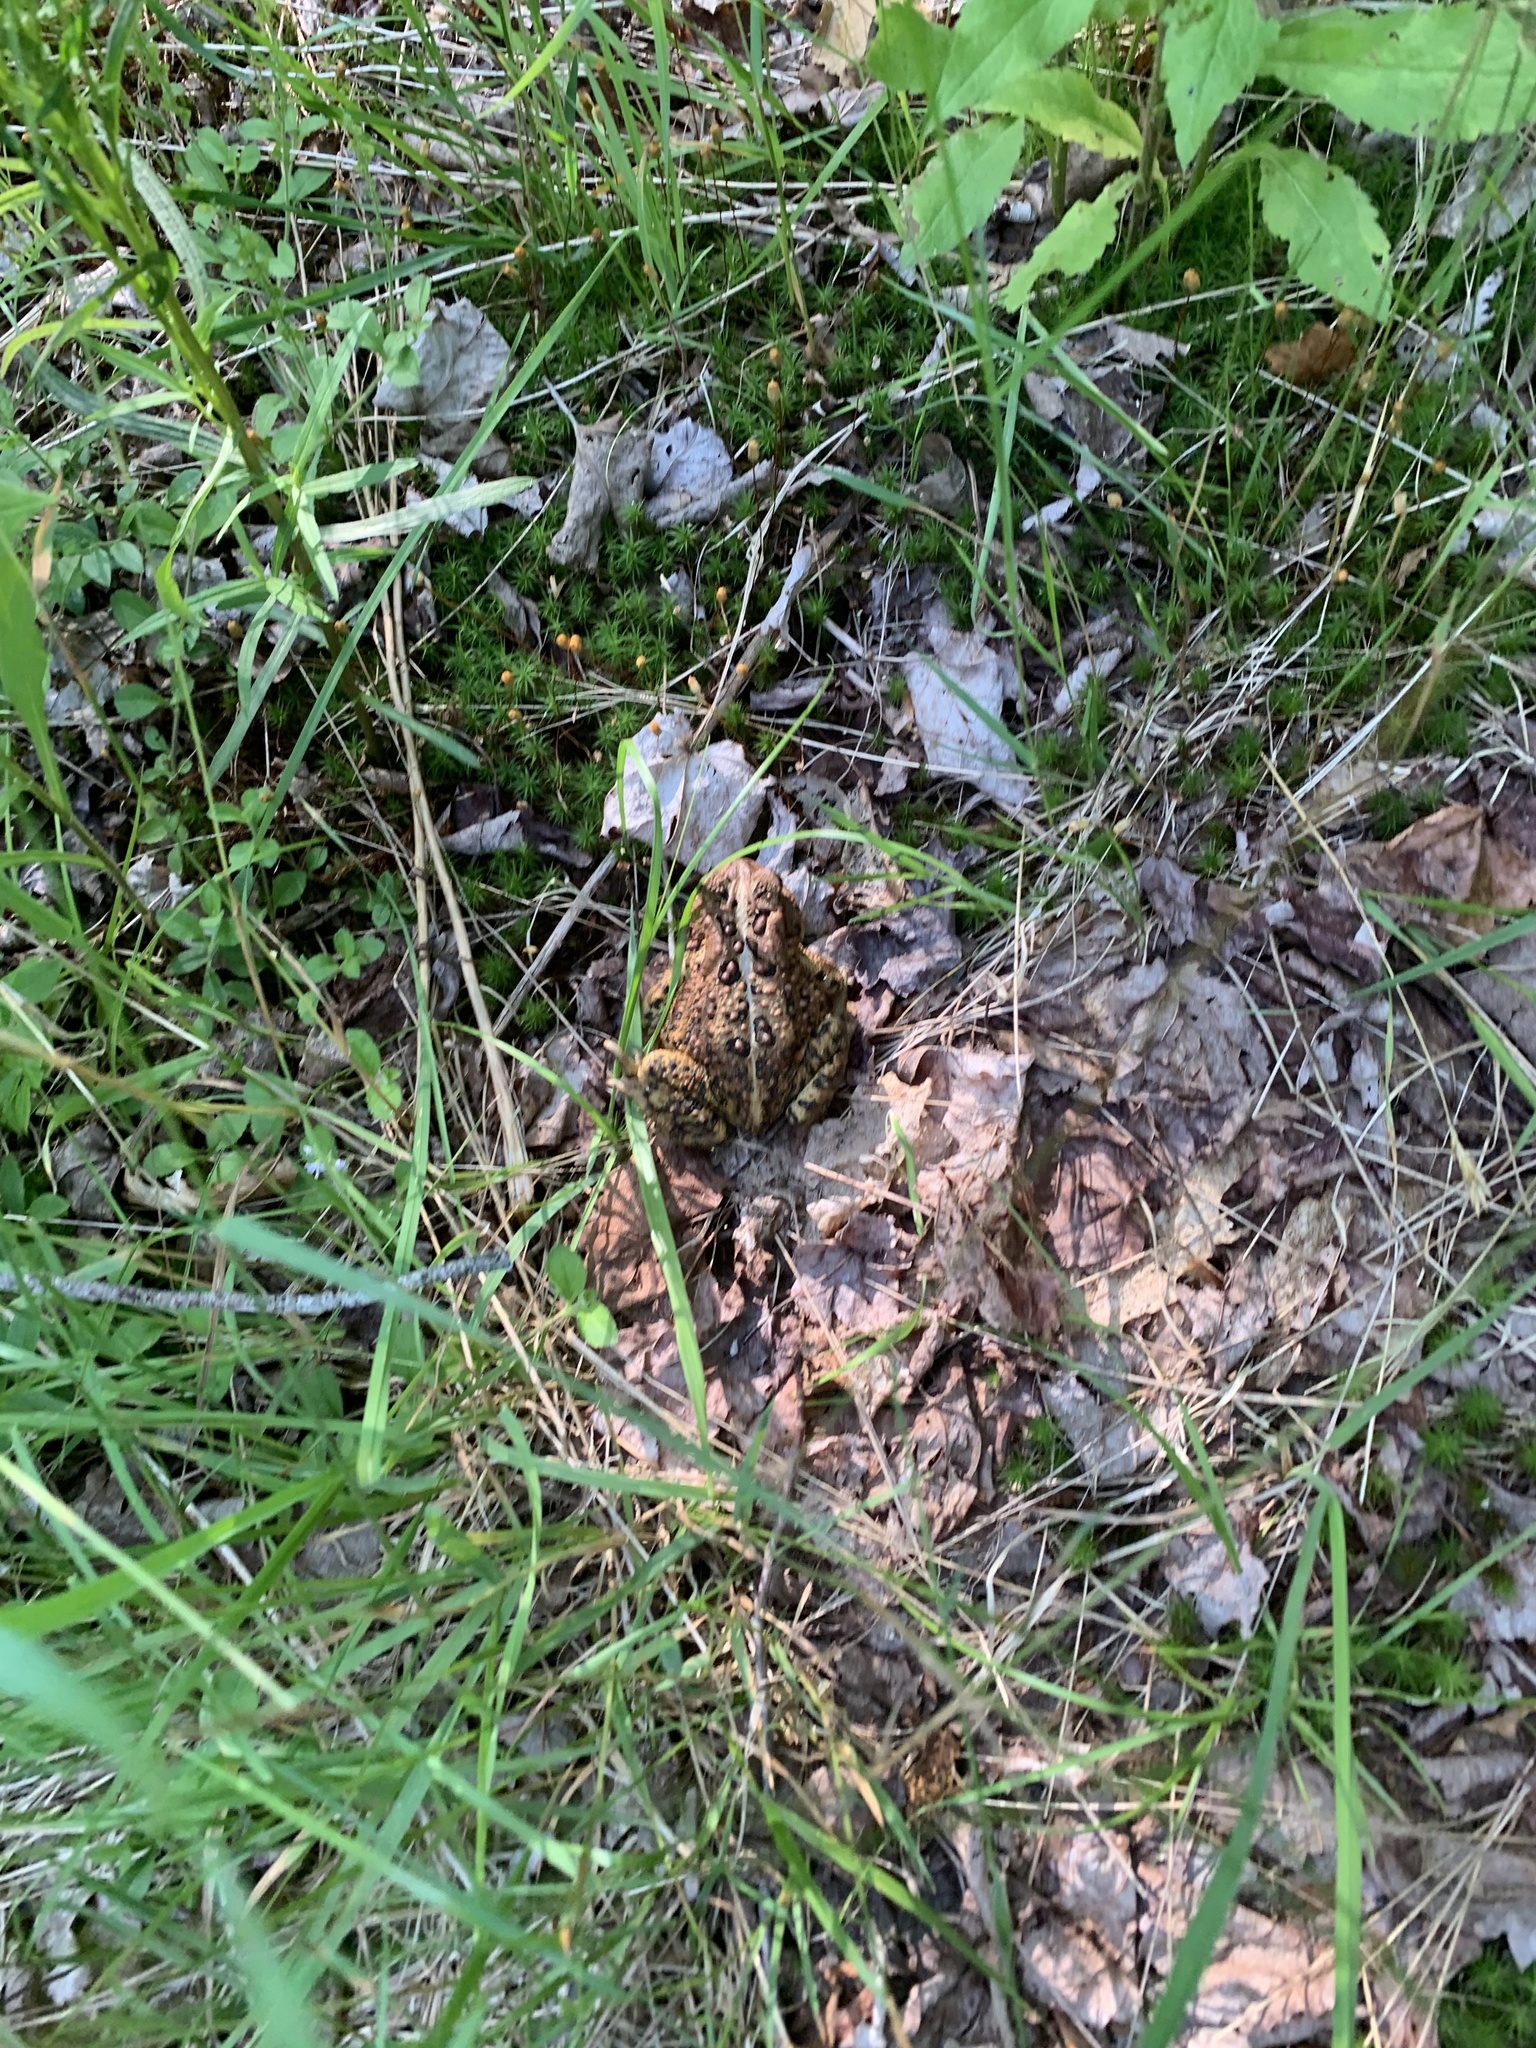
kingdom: Animalia
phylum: Chordata
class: Amphibia
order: Anura
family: Bufonidae
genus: Anaxyrus
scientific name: Anaxyrus americanus
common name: American toad
